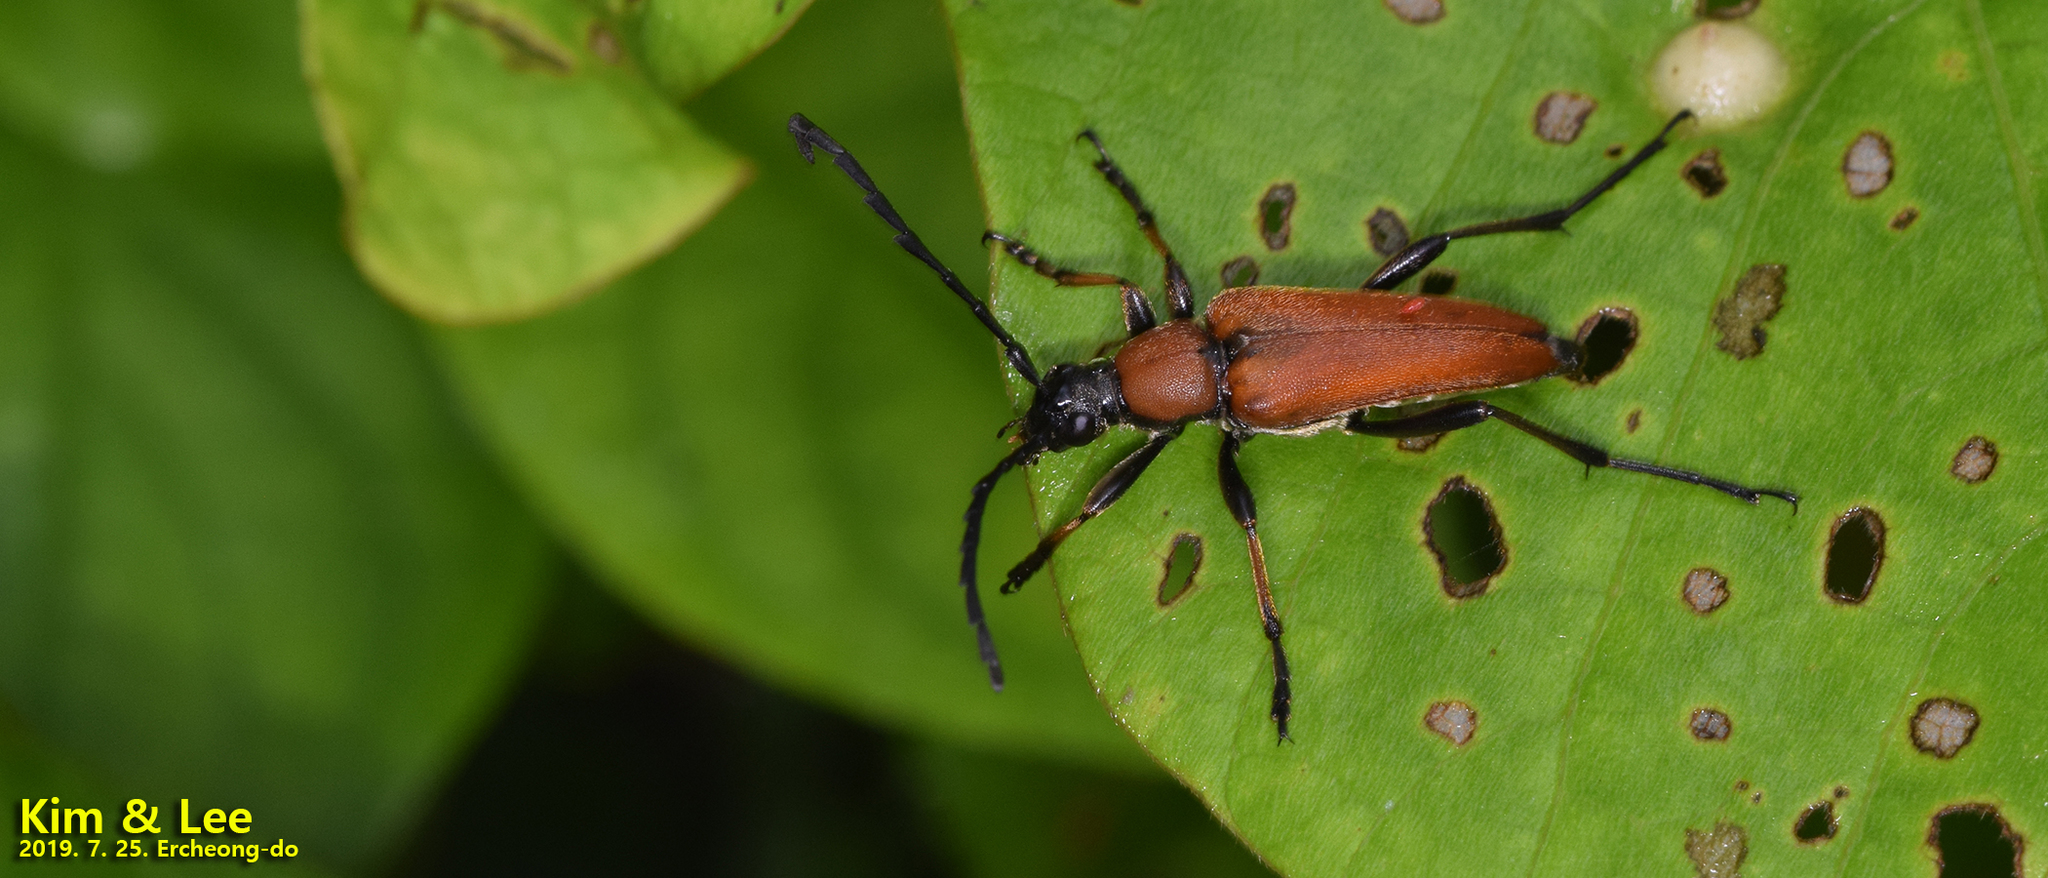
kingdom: Animalia
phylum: Arthropoda
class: Insecta
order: Coleoptera
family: Cerambycidae
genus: Stictoleptura
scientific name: Stictoleptura dichroa
